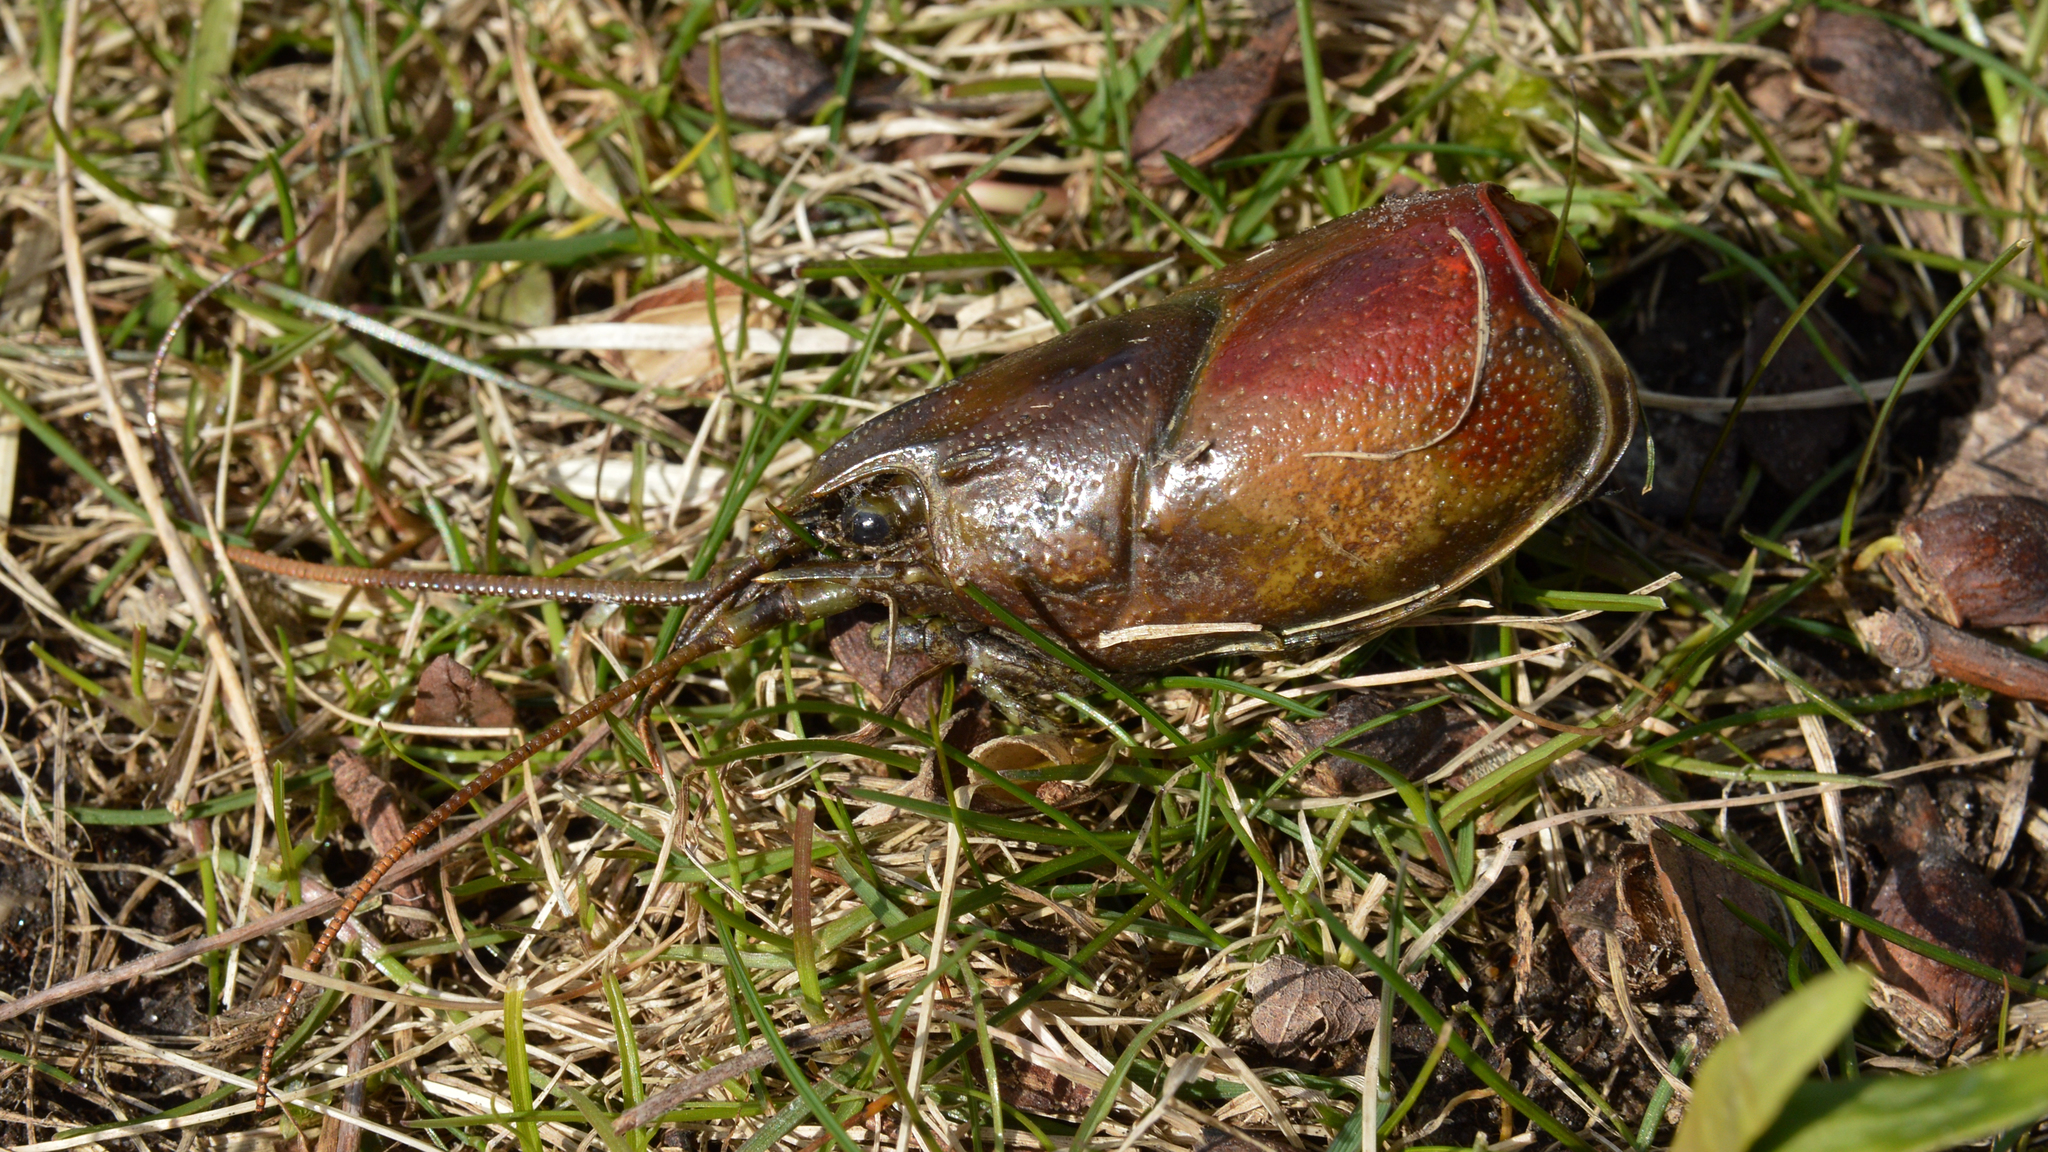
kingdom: Animalia
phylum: Arthropoda
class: Malacostraca
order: Decapoda
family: Cambaridae
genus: Faxonius
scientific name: Faxonius rusticus
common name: Rusty crayfish
